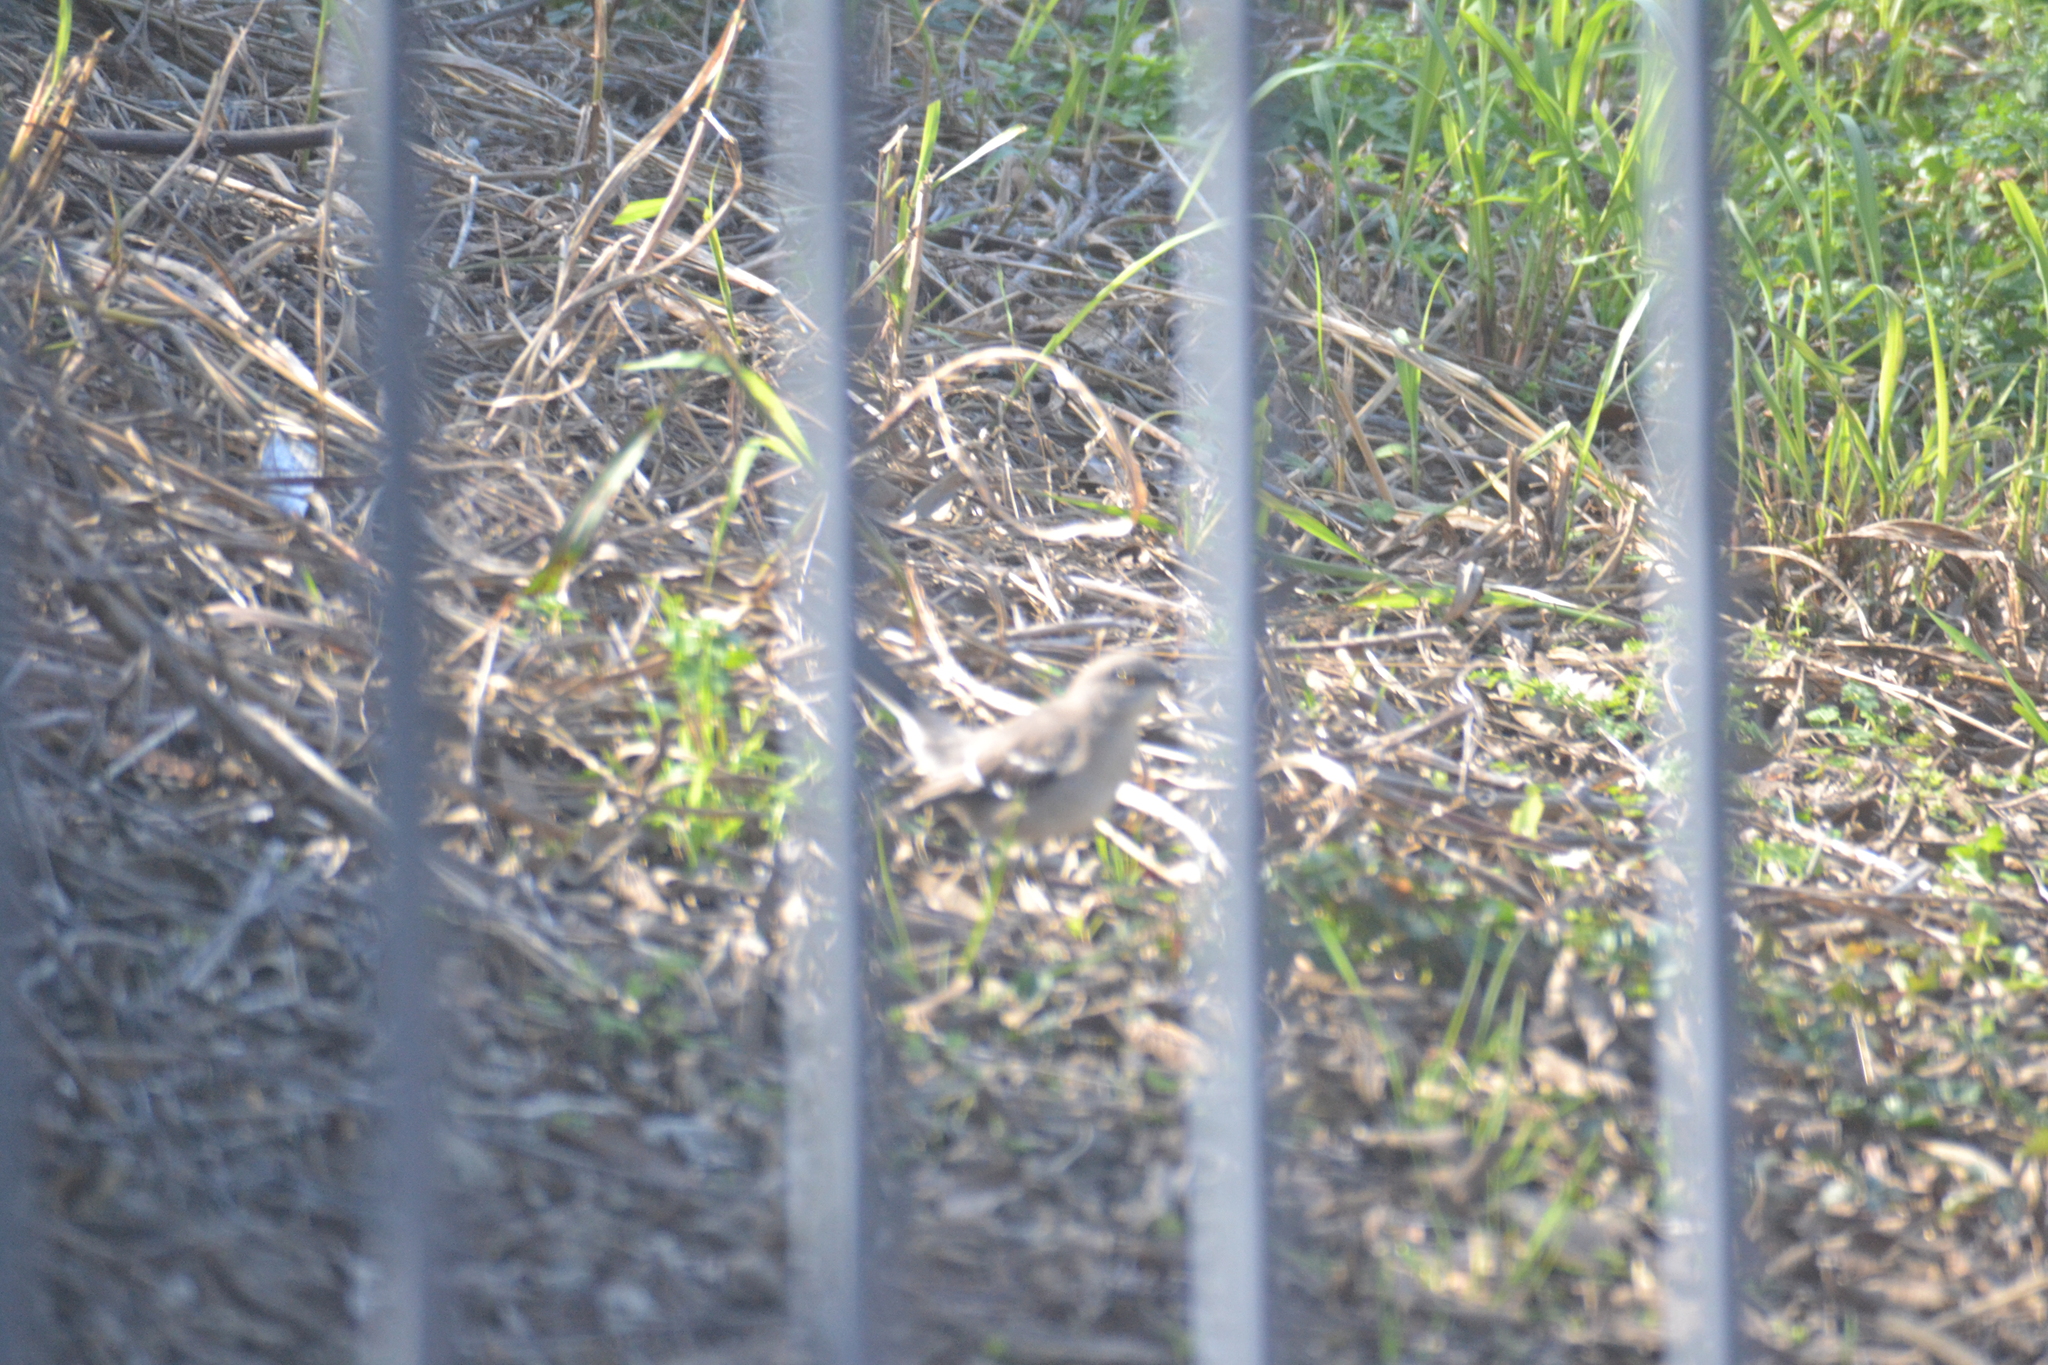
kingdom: Animalia
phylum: Chordata
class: Aves
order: Passeriformes
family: Mimidae
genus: Mimus
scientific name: Mimus polyglottos
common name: Northern mockingbird
